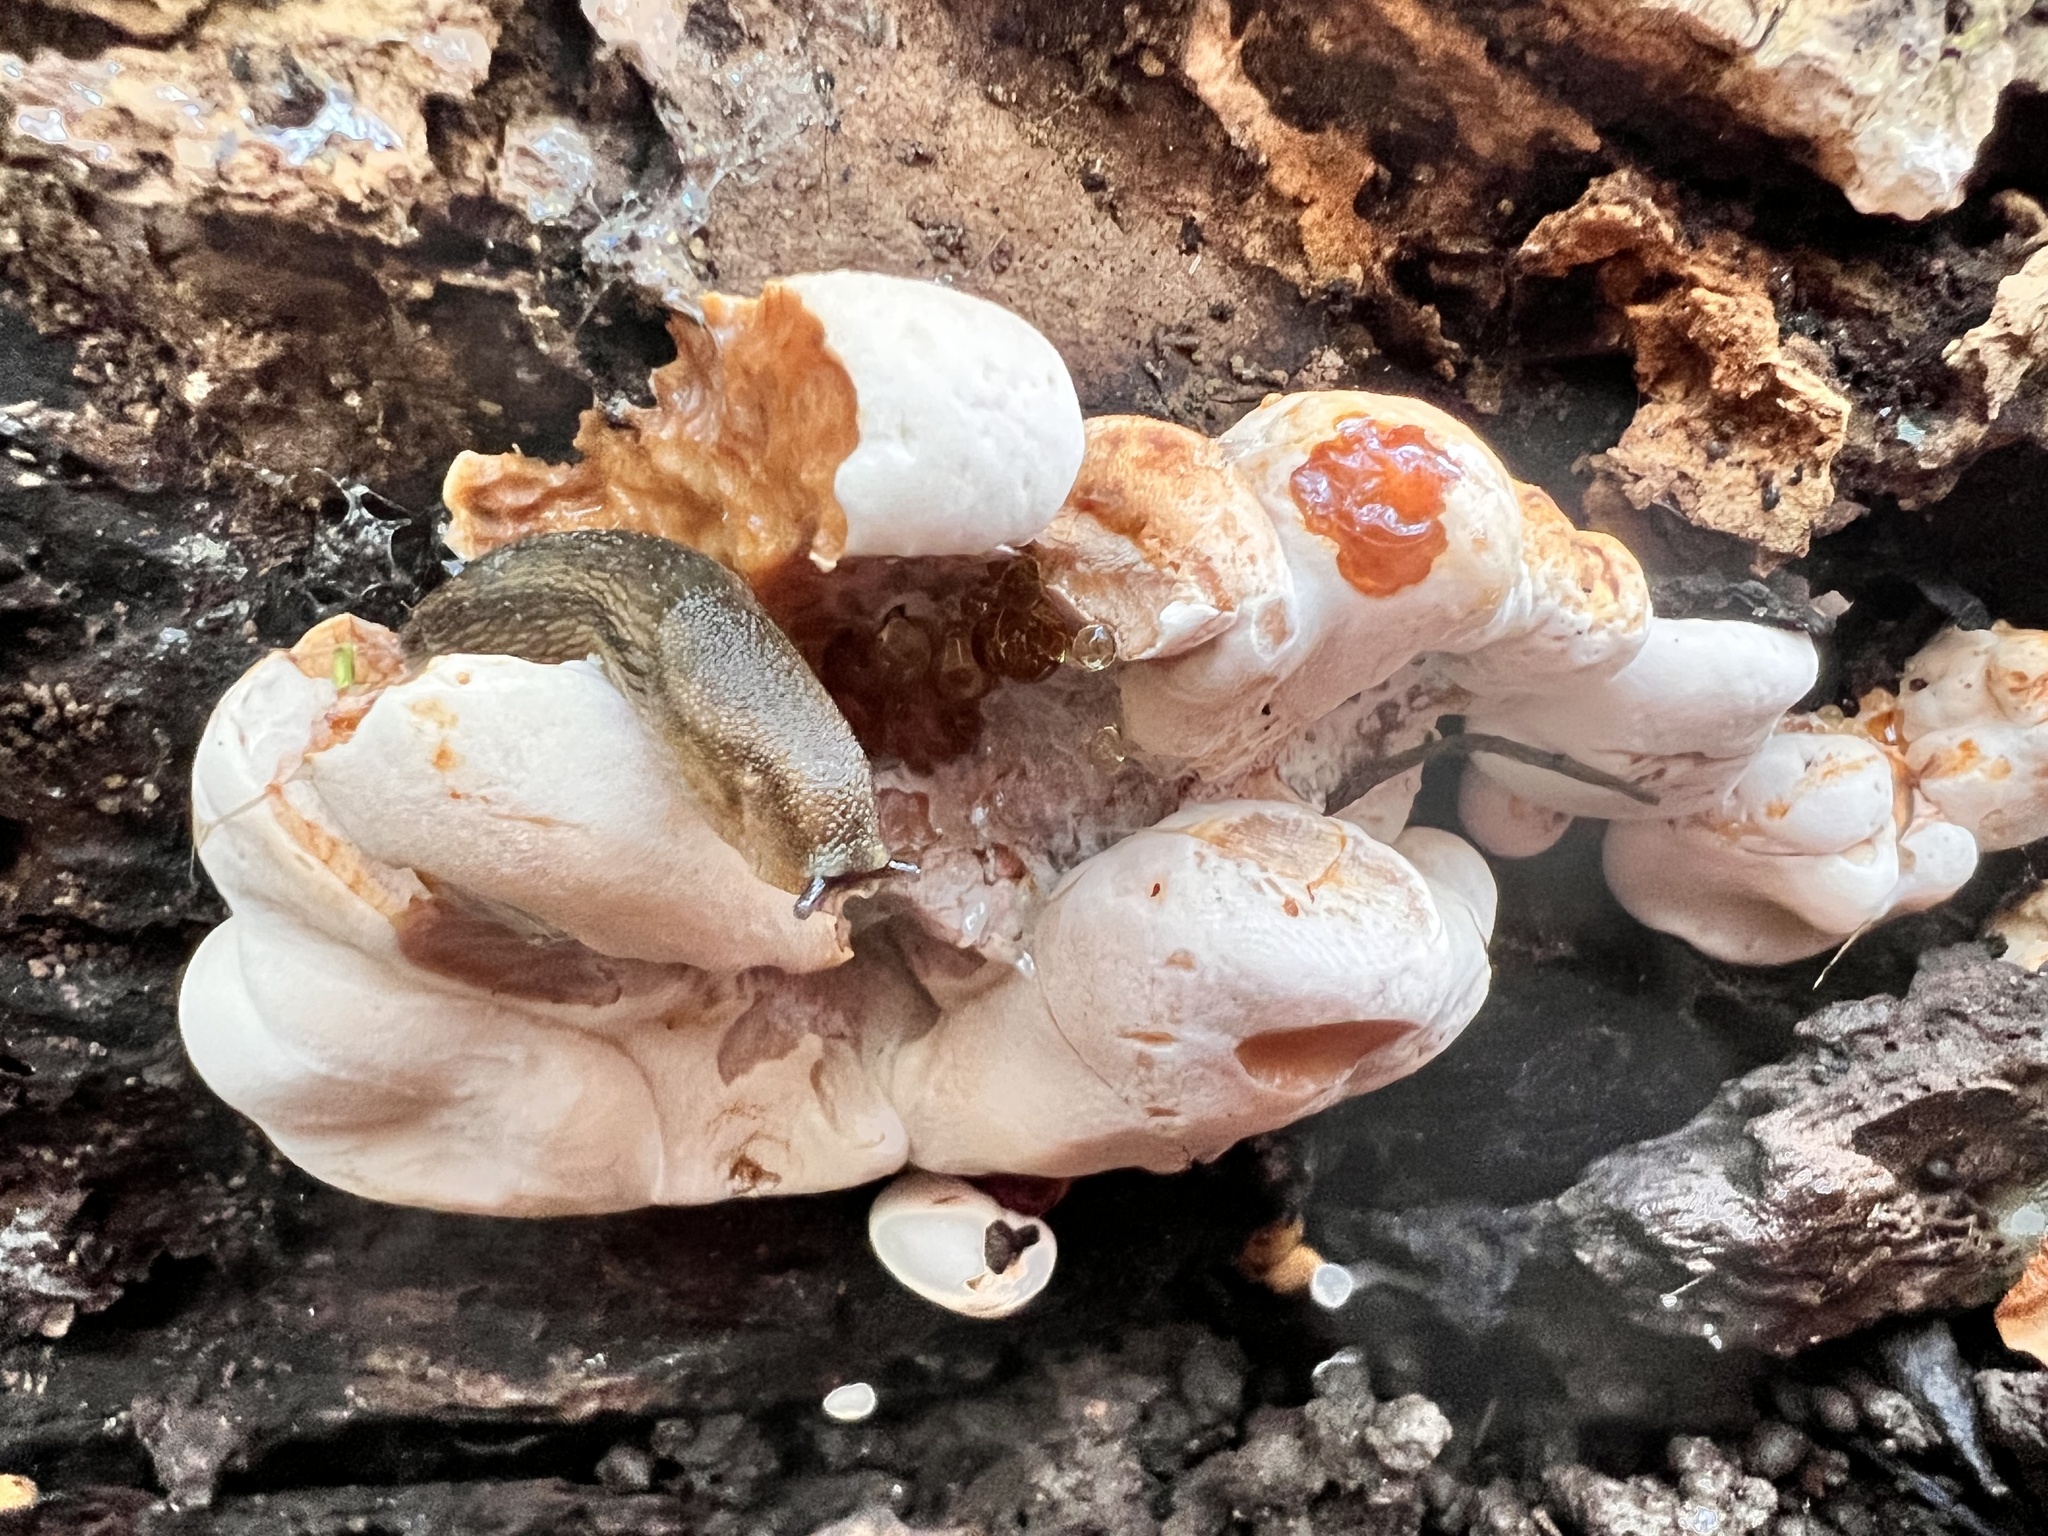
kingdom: Fungi
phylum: Basidiomycota
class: Agaricomycetes
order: Polyporales
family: Ischnodermataceae
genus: Ischnoderma
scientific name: Ischnoderma resinosum
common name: Resinous polypore
